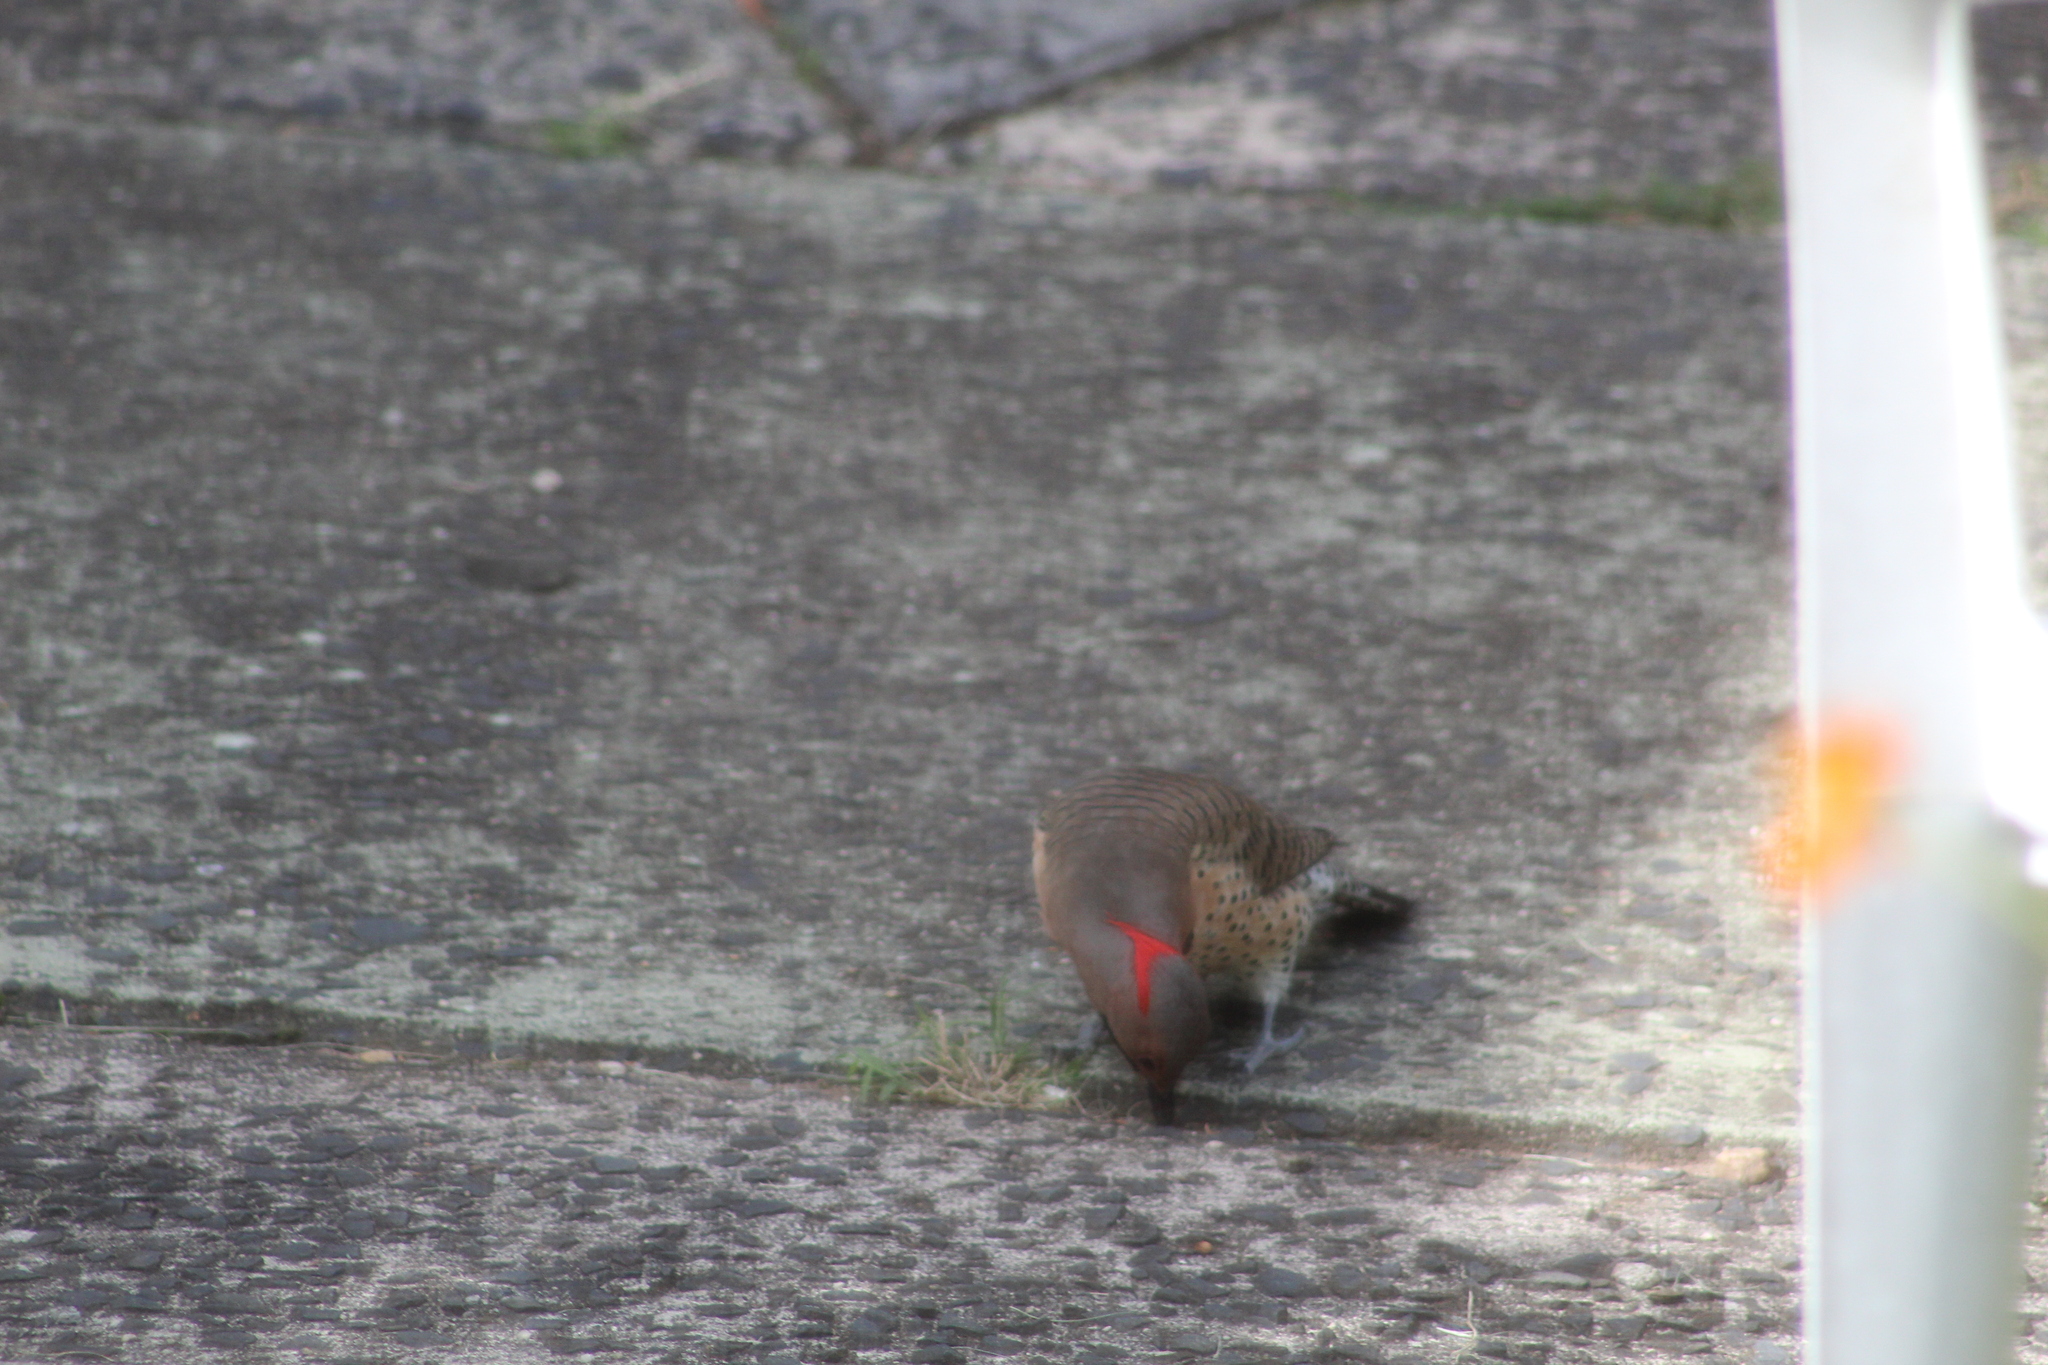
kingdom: Animalia
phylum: Chordata
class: Aves
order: Piciformes
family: Picidae
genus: Colaptes
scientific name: Colaptes auratus
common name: Northern flicker
